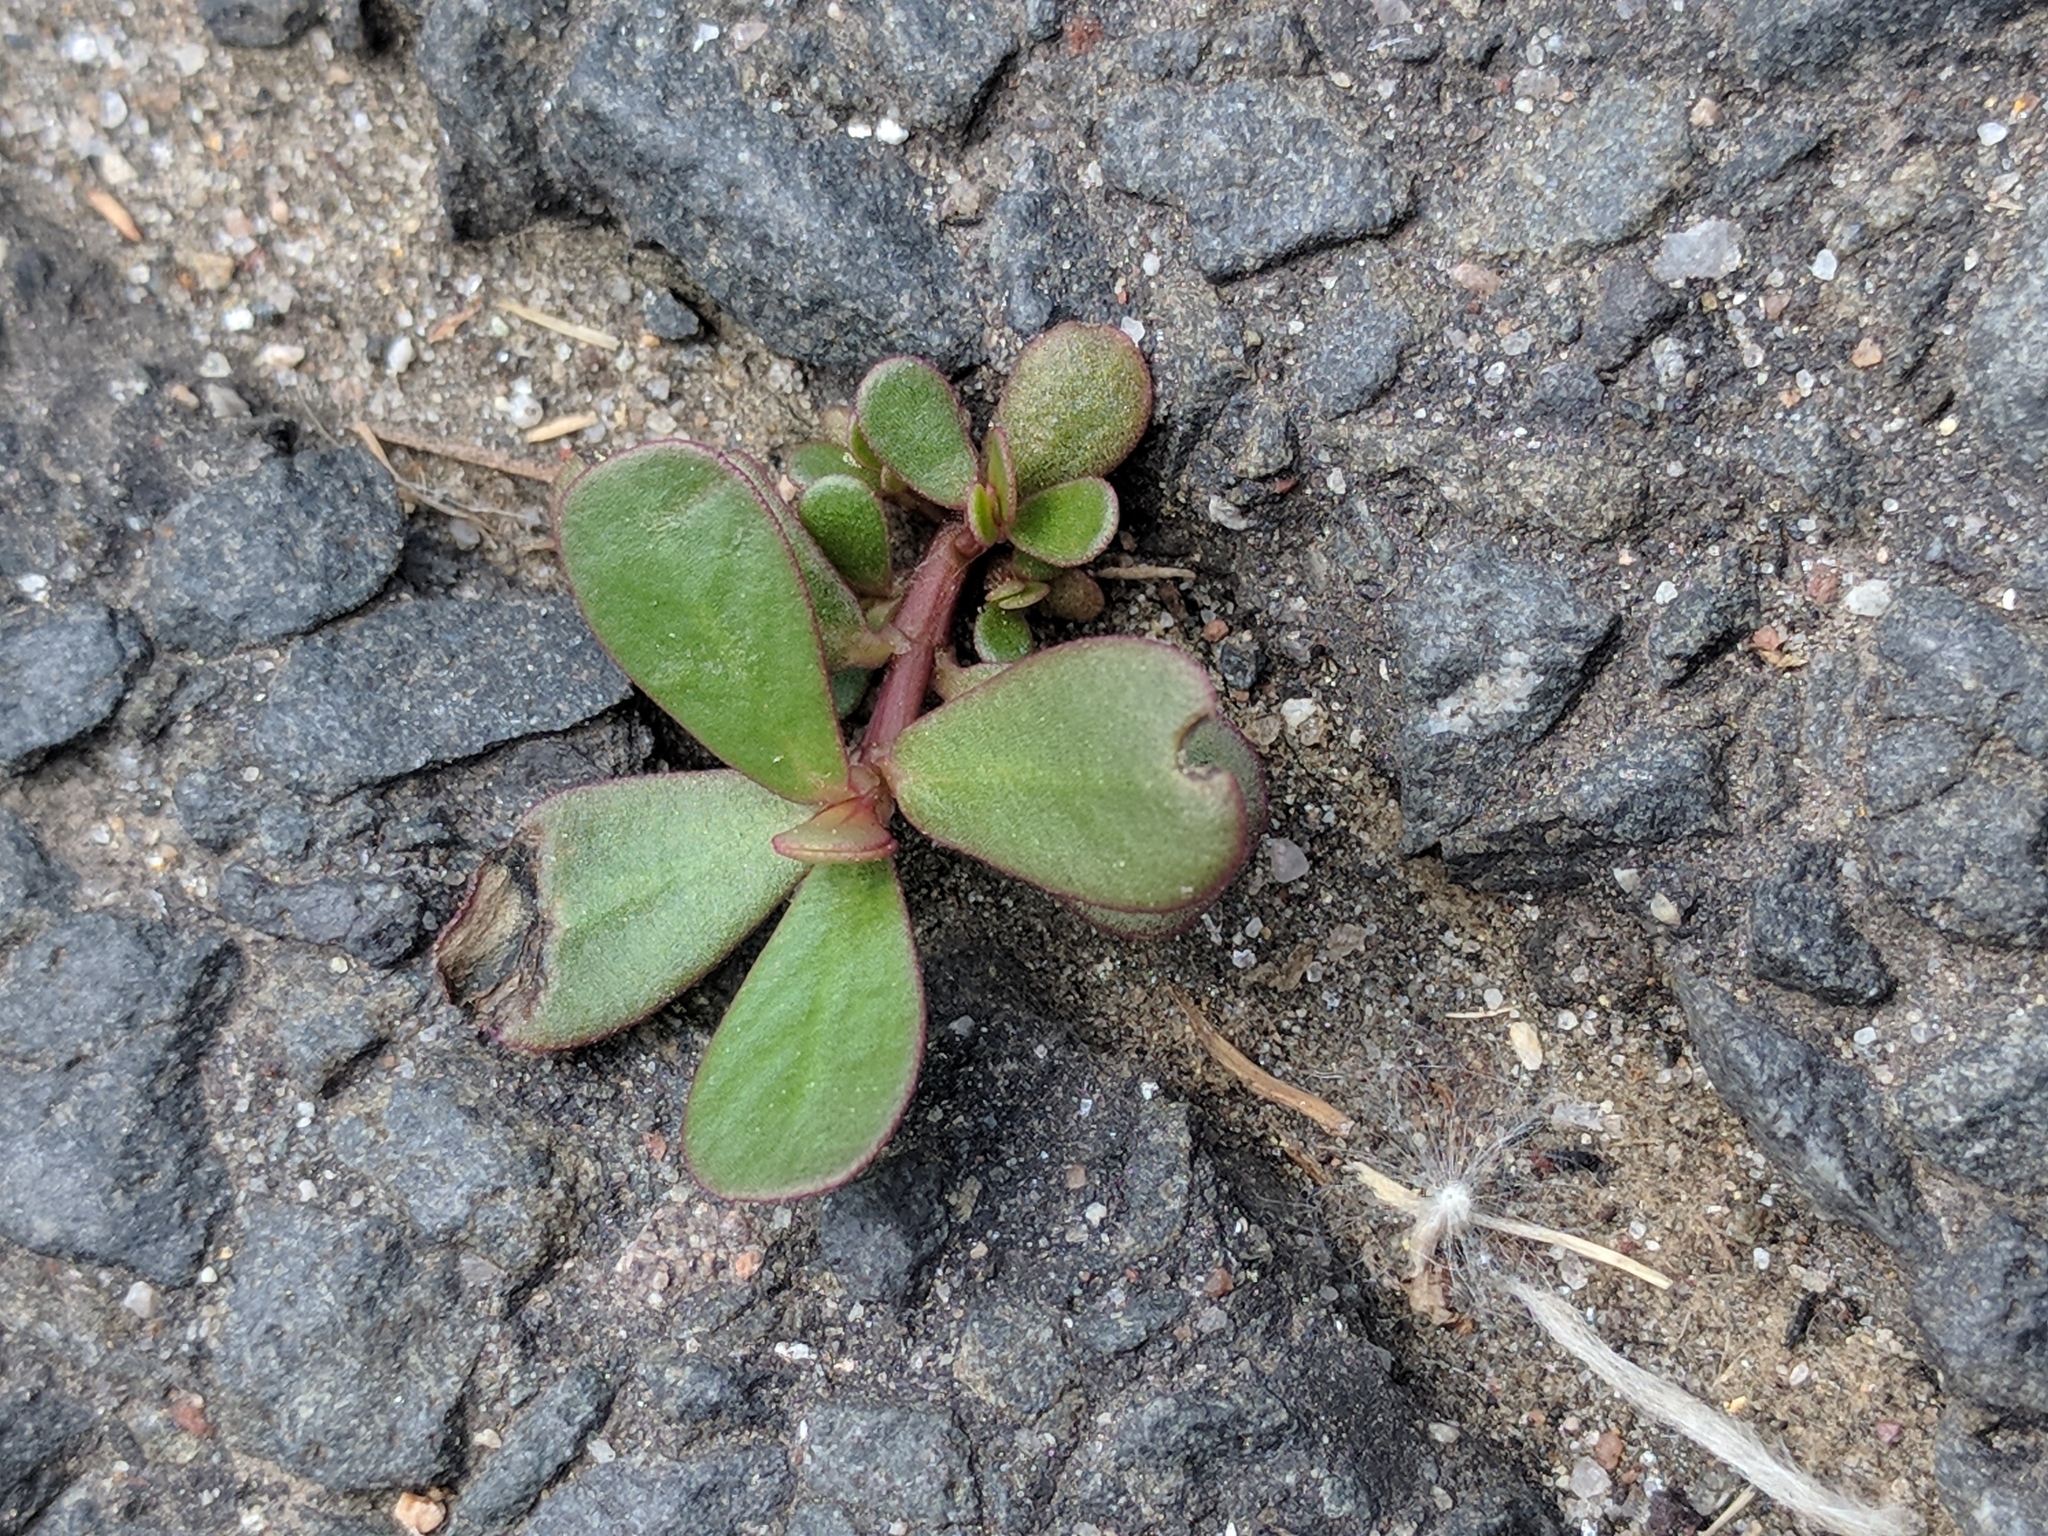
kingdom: Plantae
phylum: Tracheophyta
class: Magnoliopsida
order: Caryophyllales
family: Portulacaceae
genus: Portulaca
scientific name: Portulaca oleracea
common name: Common purslane
